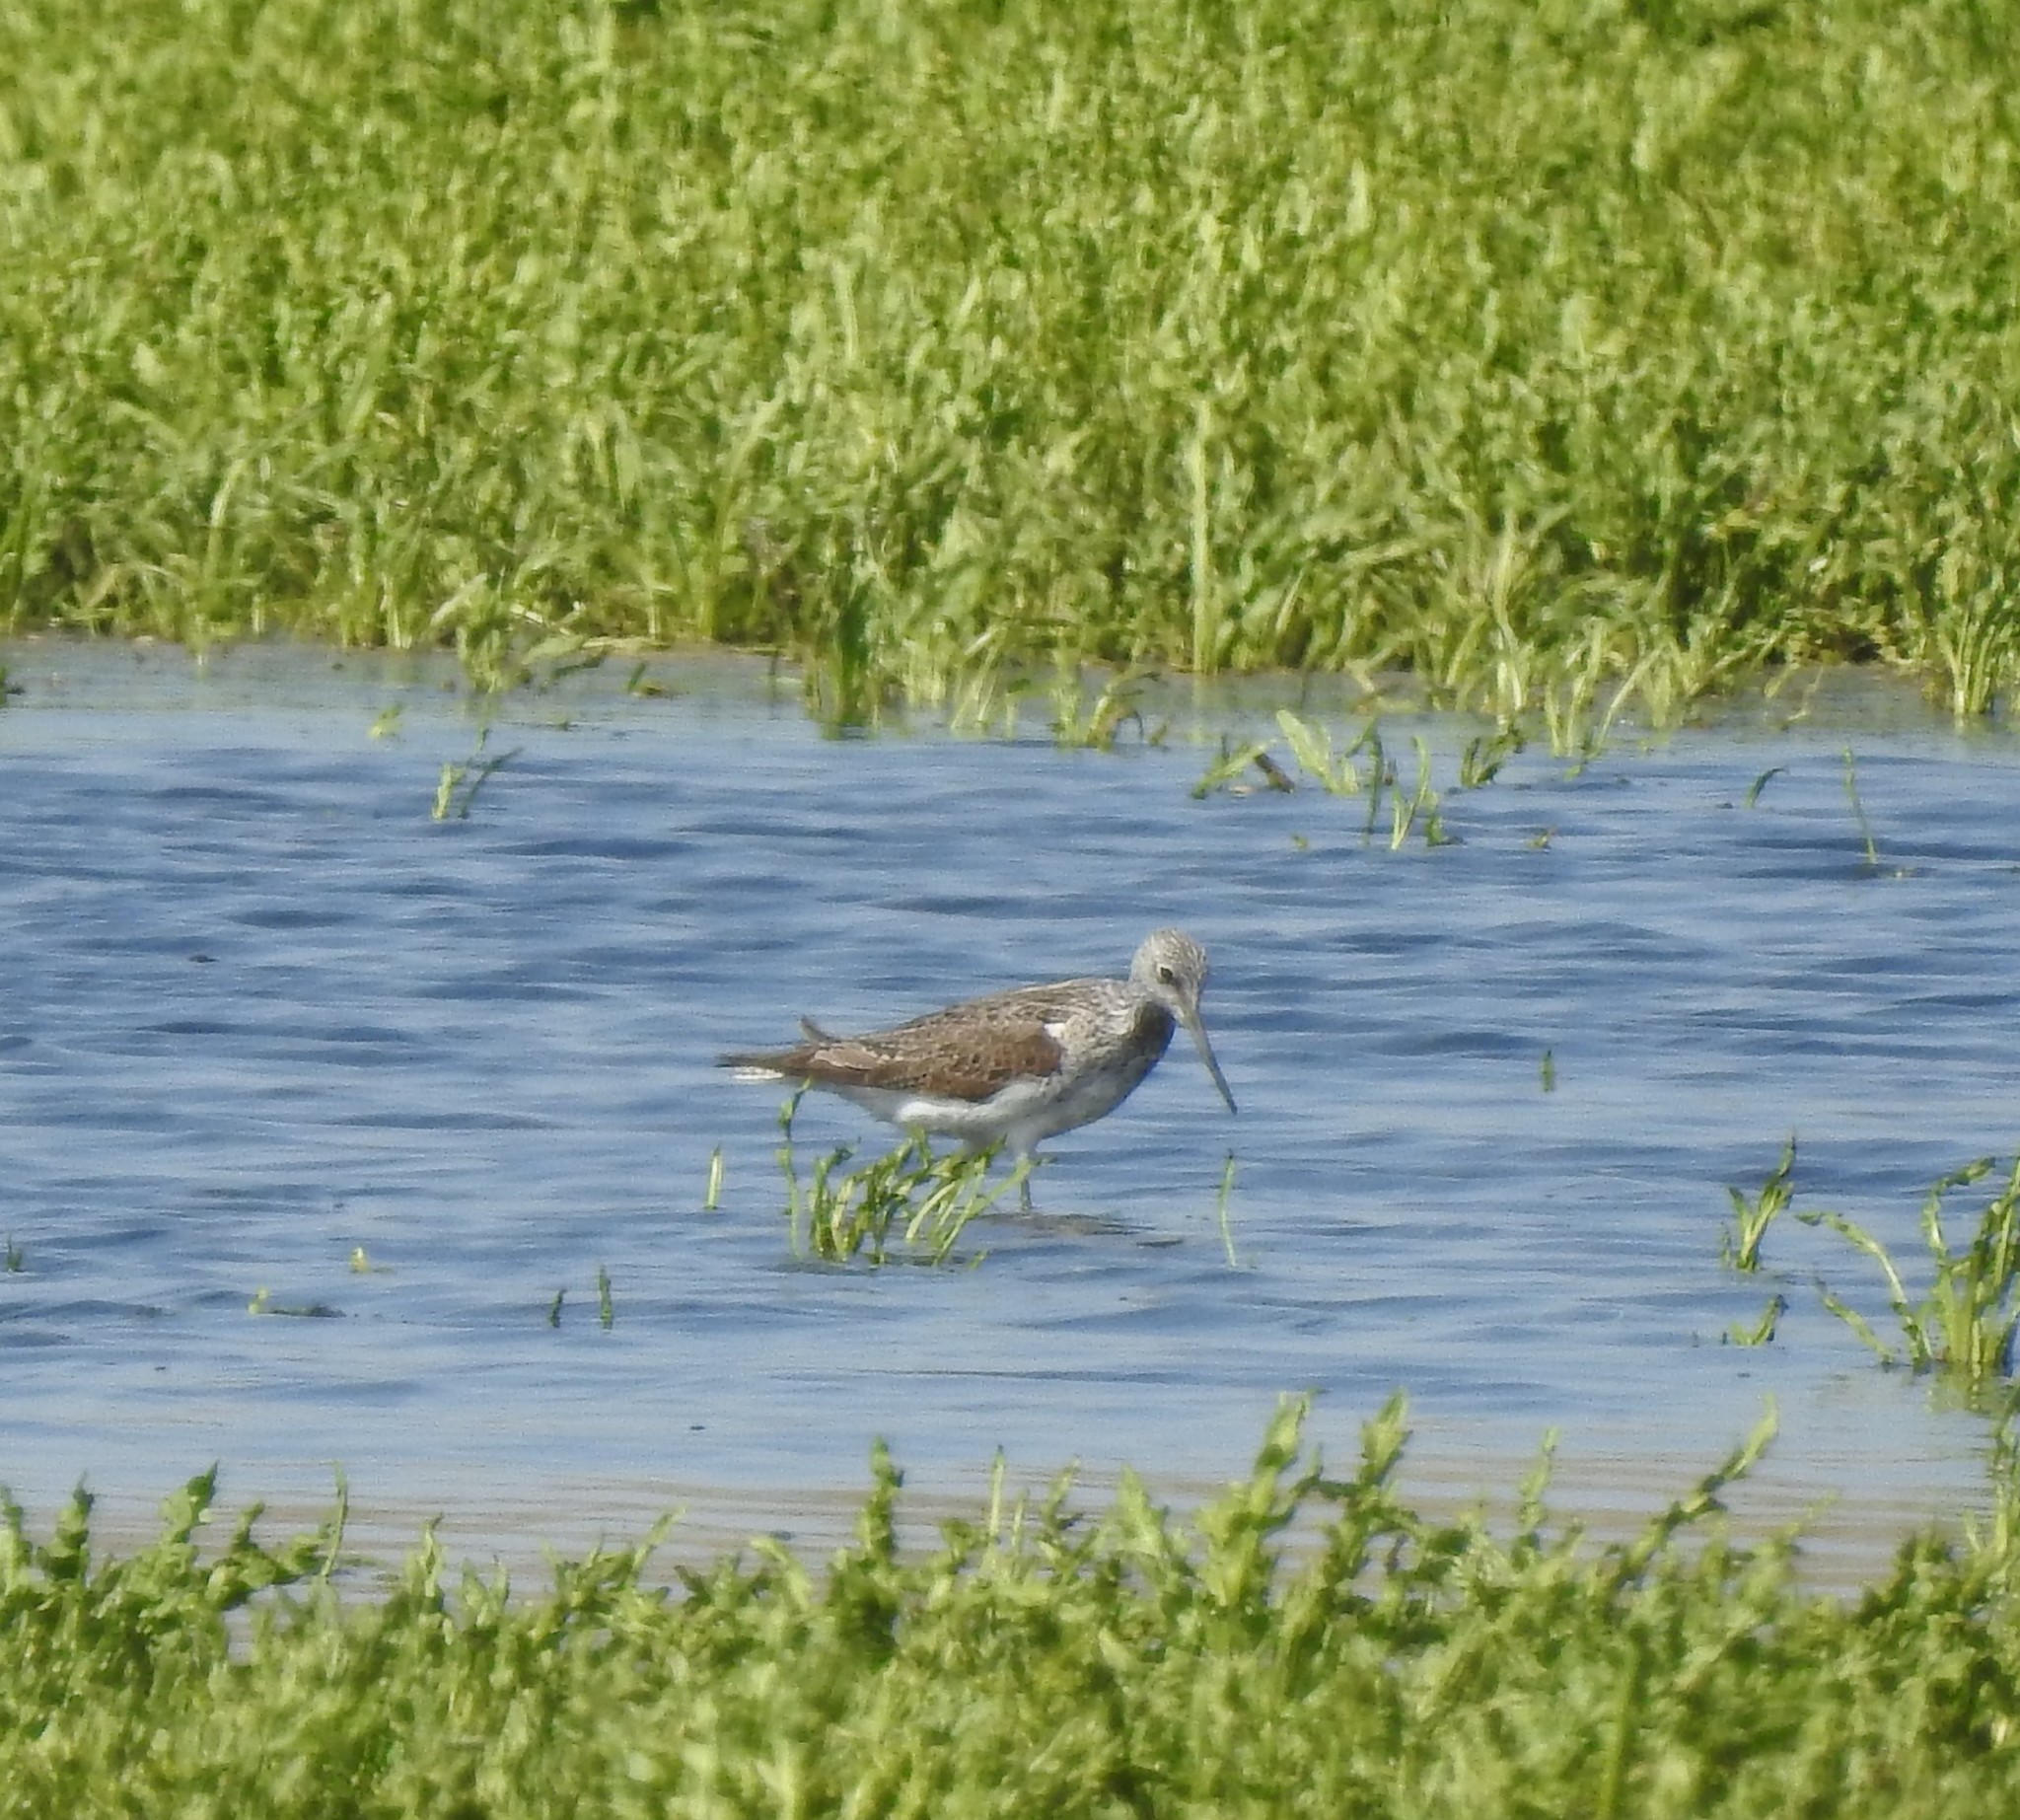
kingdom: Animalia
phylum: Chordata
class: Aves
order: Charadriiformes
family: Scolopacidae
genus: Tringa
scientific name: Tringa nebularia
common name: Common greenshank
